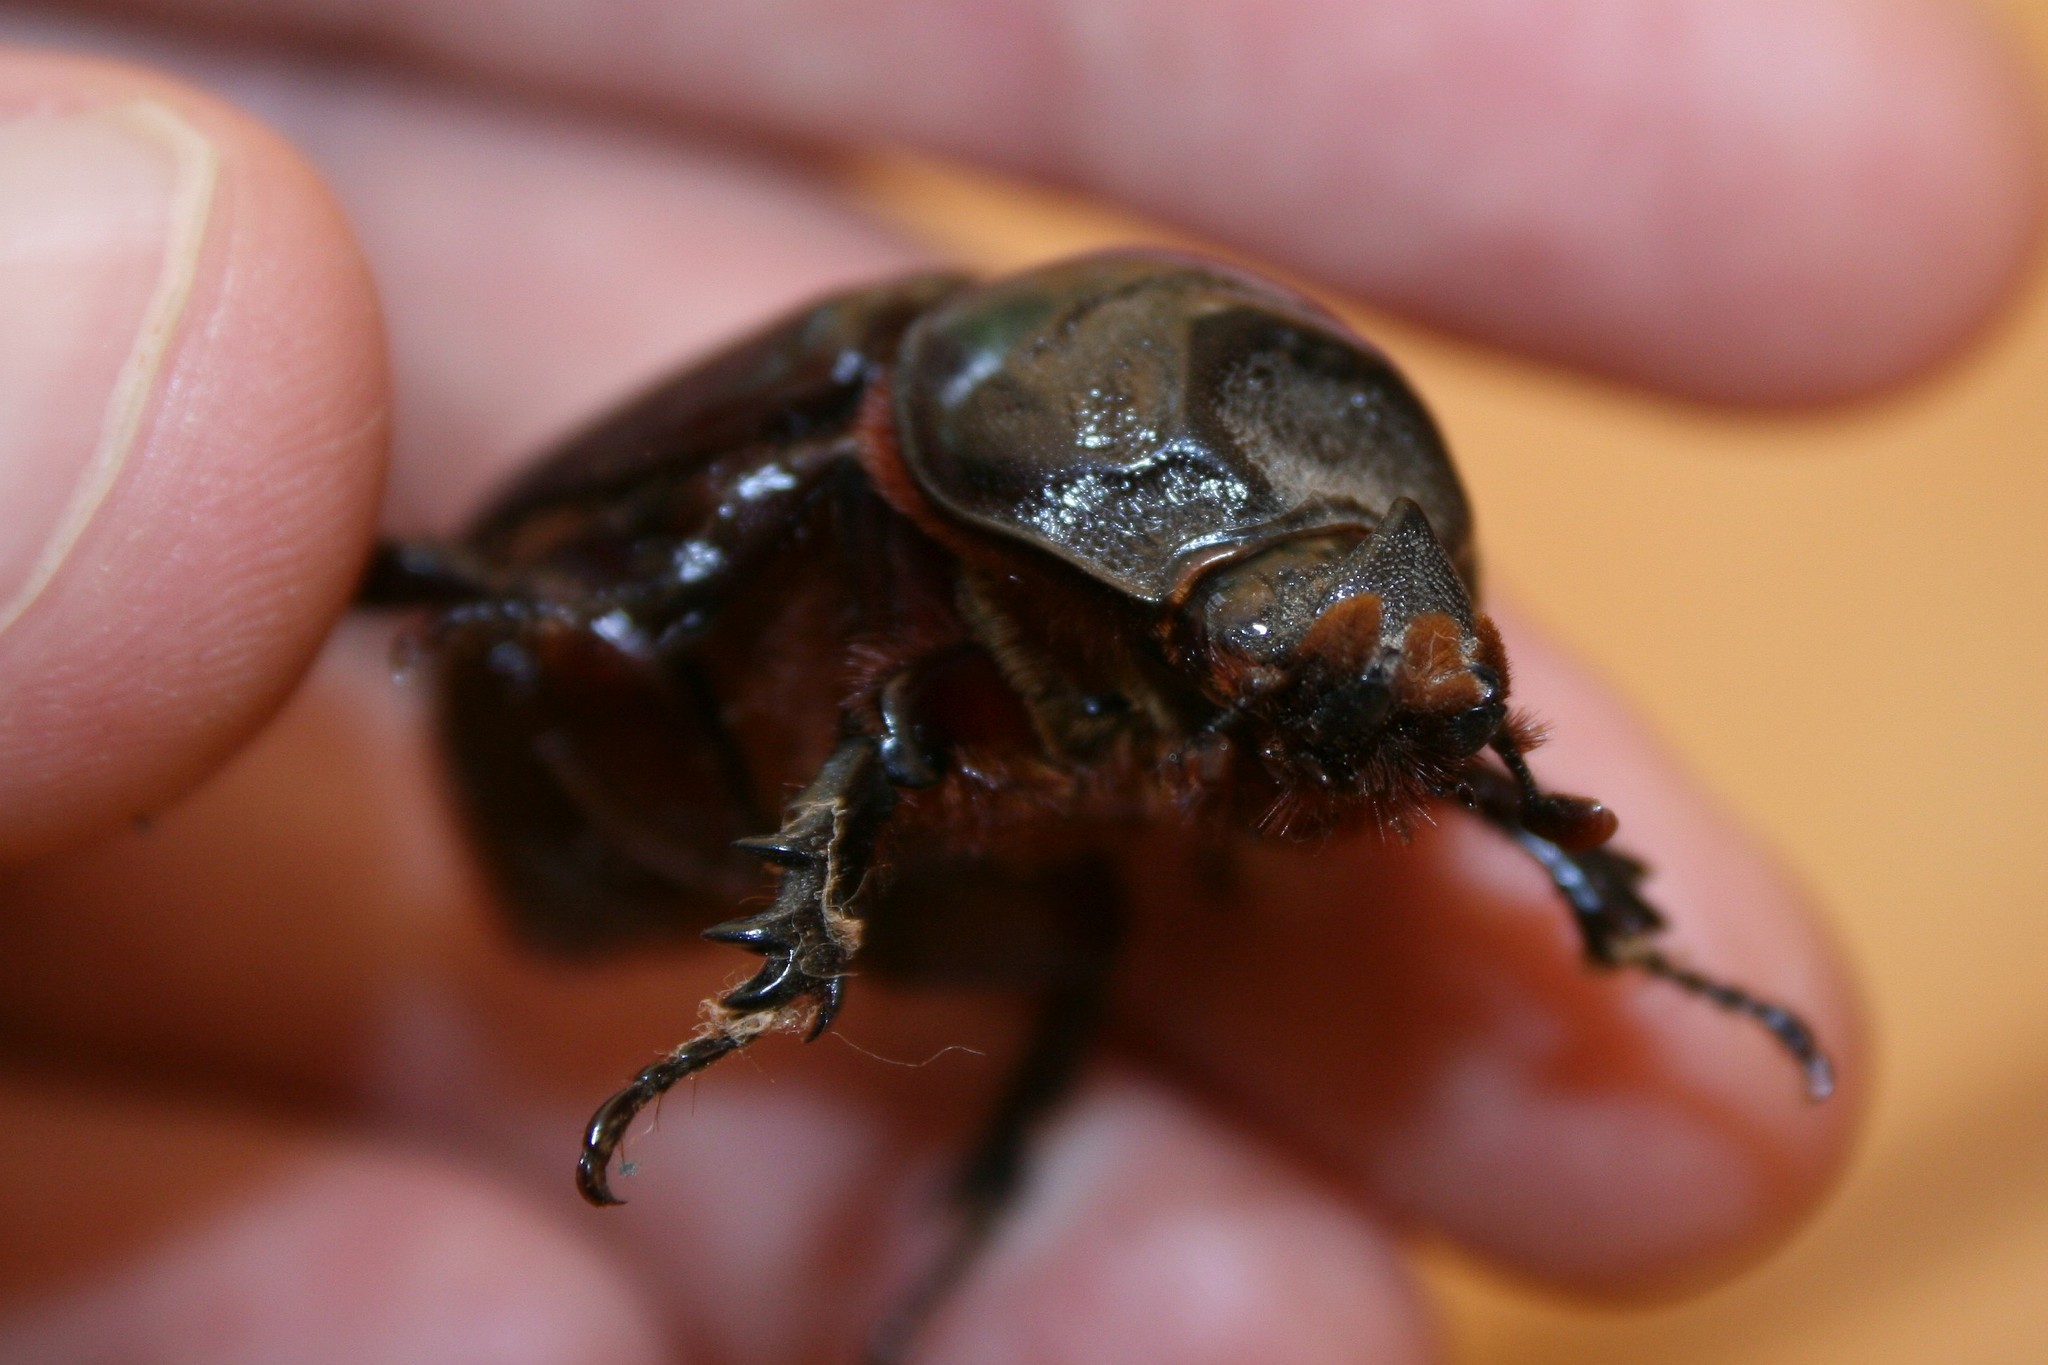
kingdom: Animalia
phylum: Arthropoda
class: Insecta
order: Coleoptera
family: Scarabaeidae
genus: Oryctes
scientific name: Oryctes rhinoceros
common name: Coconut rhinoceros beetle
